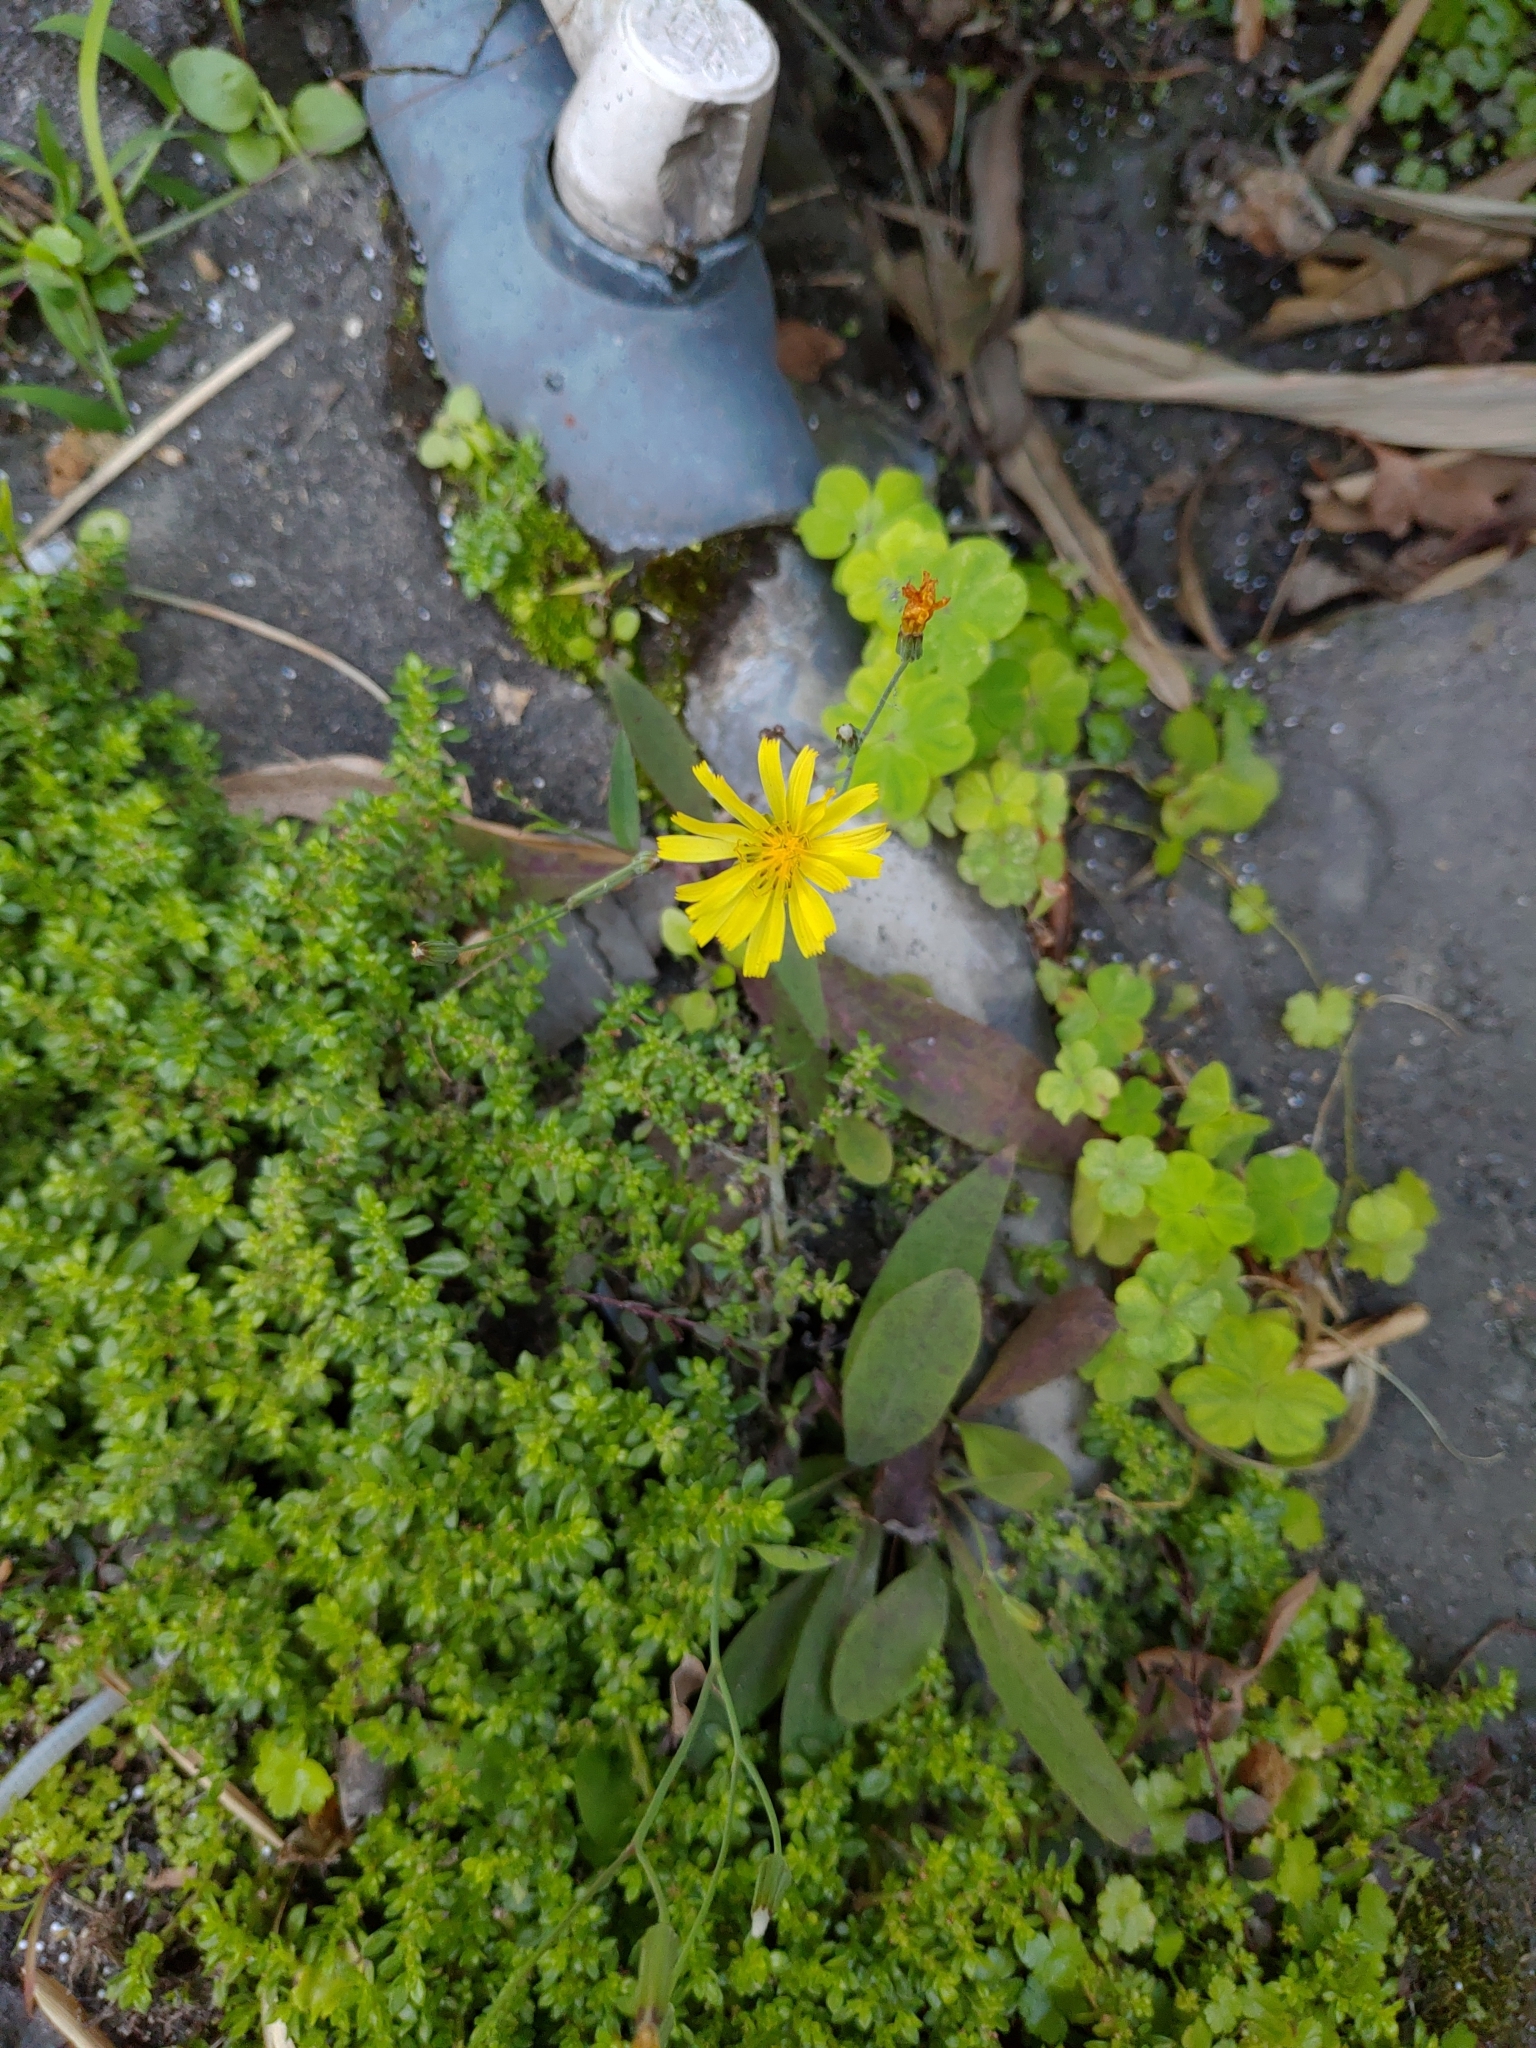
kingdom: Plantae
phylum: Tracheophyta
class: Magnoliopsida
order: Asterales
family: Asteraceae
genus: Youngia
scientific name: Youngia japonica
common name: Oriental false hawksbeard
